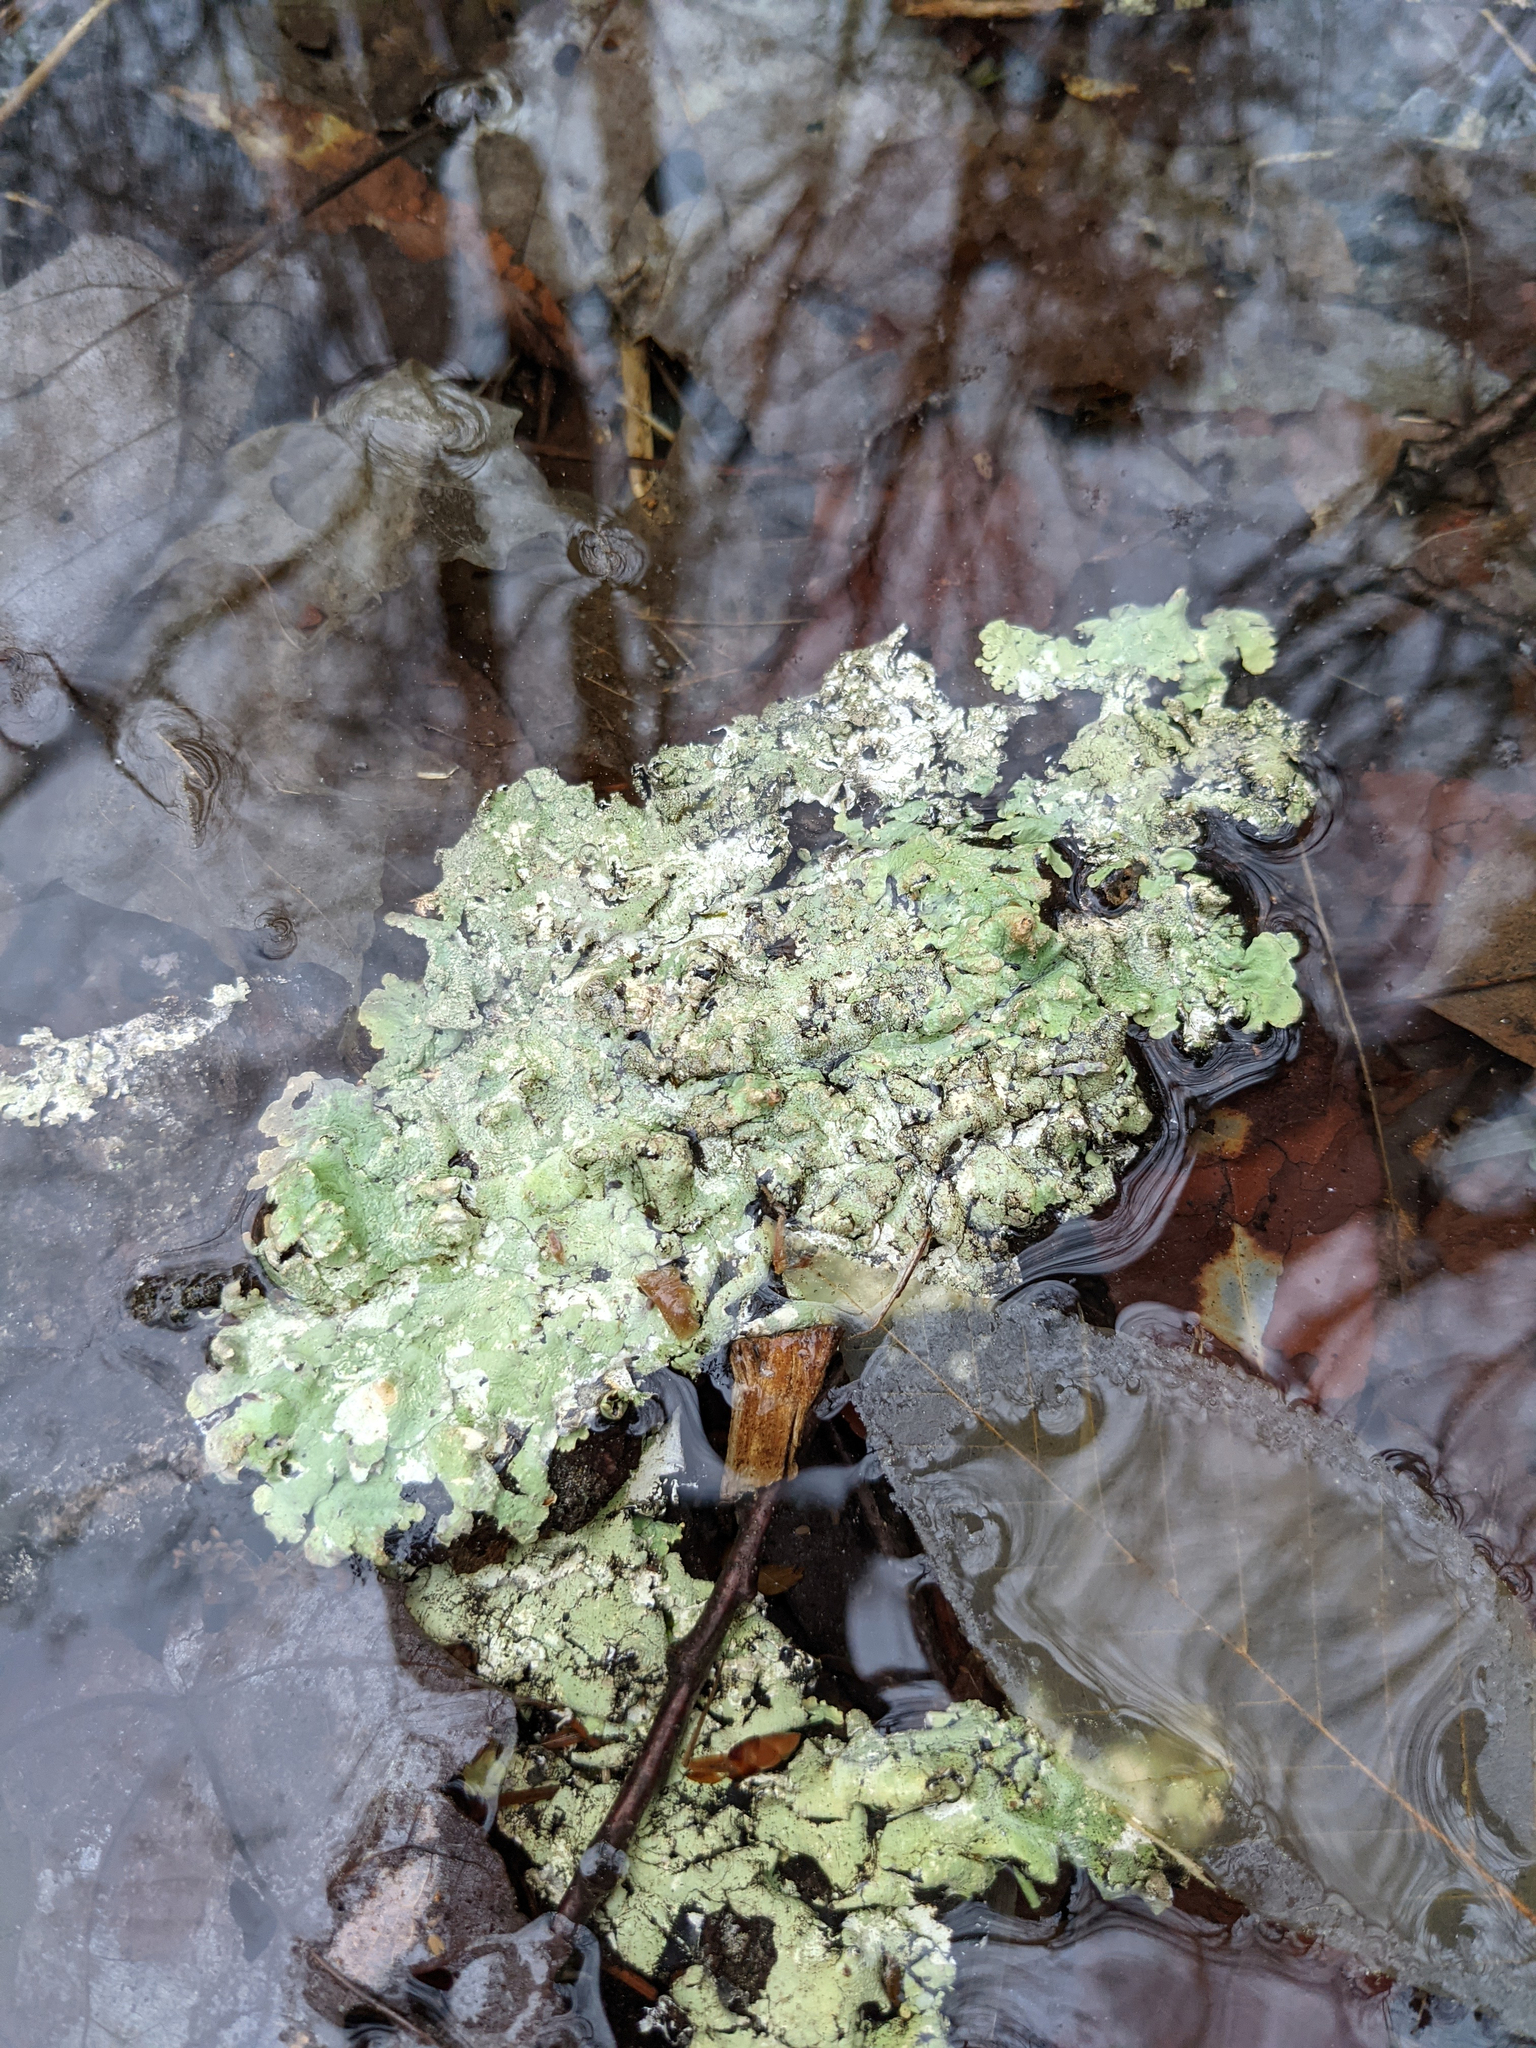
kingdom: Fungi
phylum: Ascomycota
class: Lecanoromycetes
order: Lecanorales
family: Parmeliaceae
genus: Flavoparmelia
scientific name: Flavoparmelia caperata
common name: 40-mile per hour lichen
